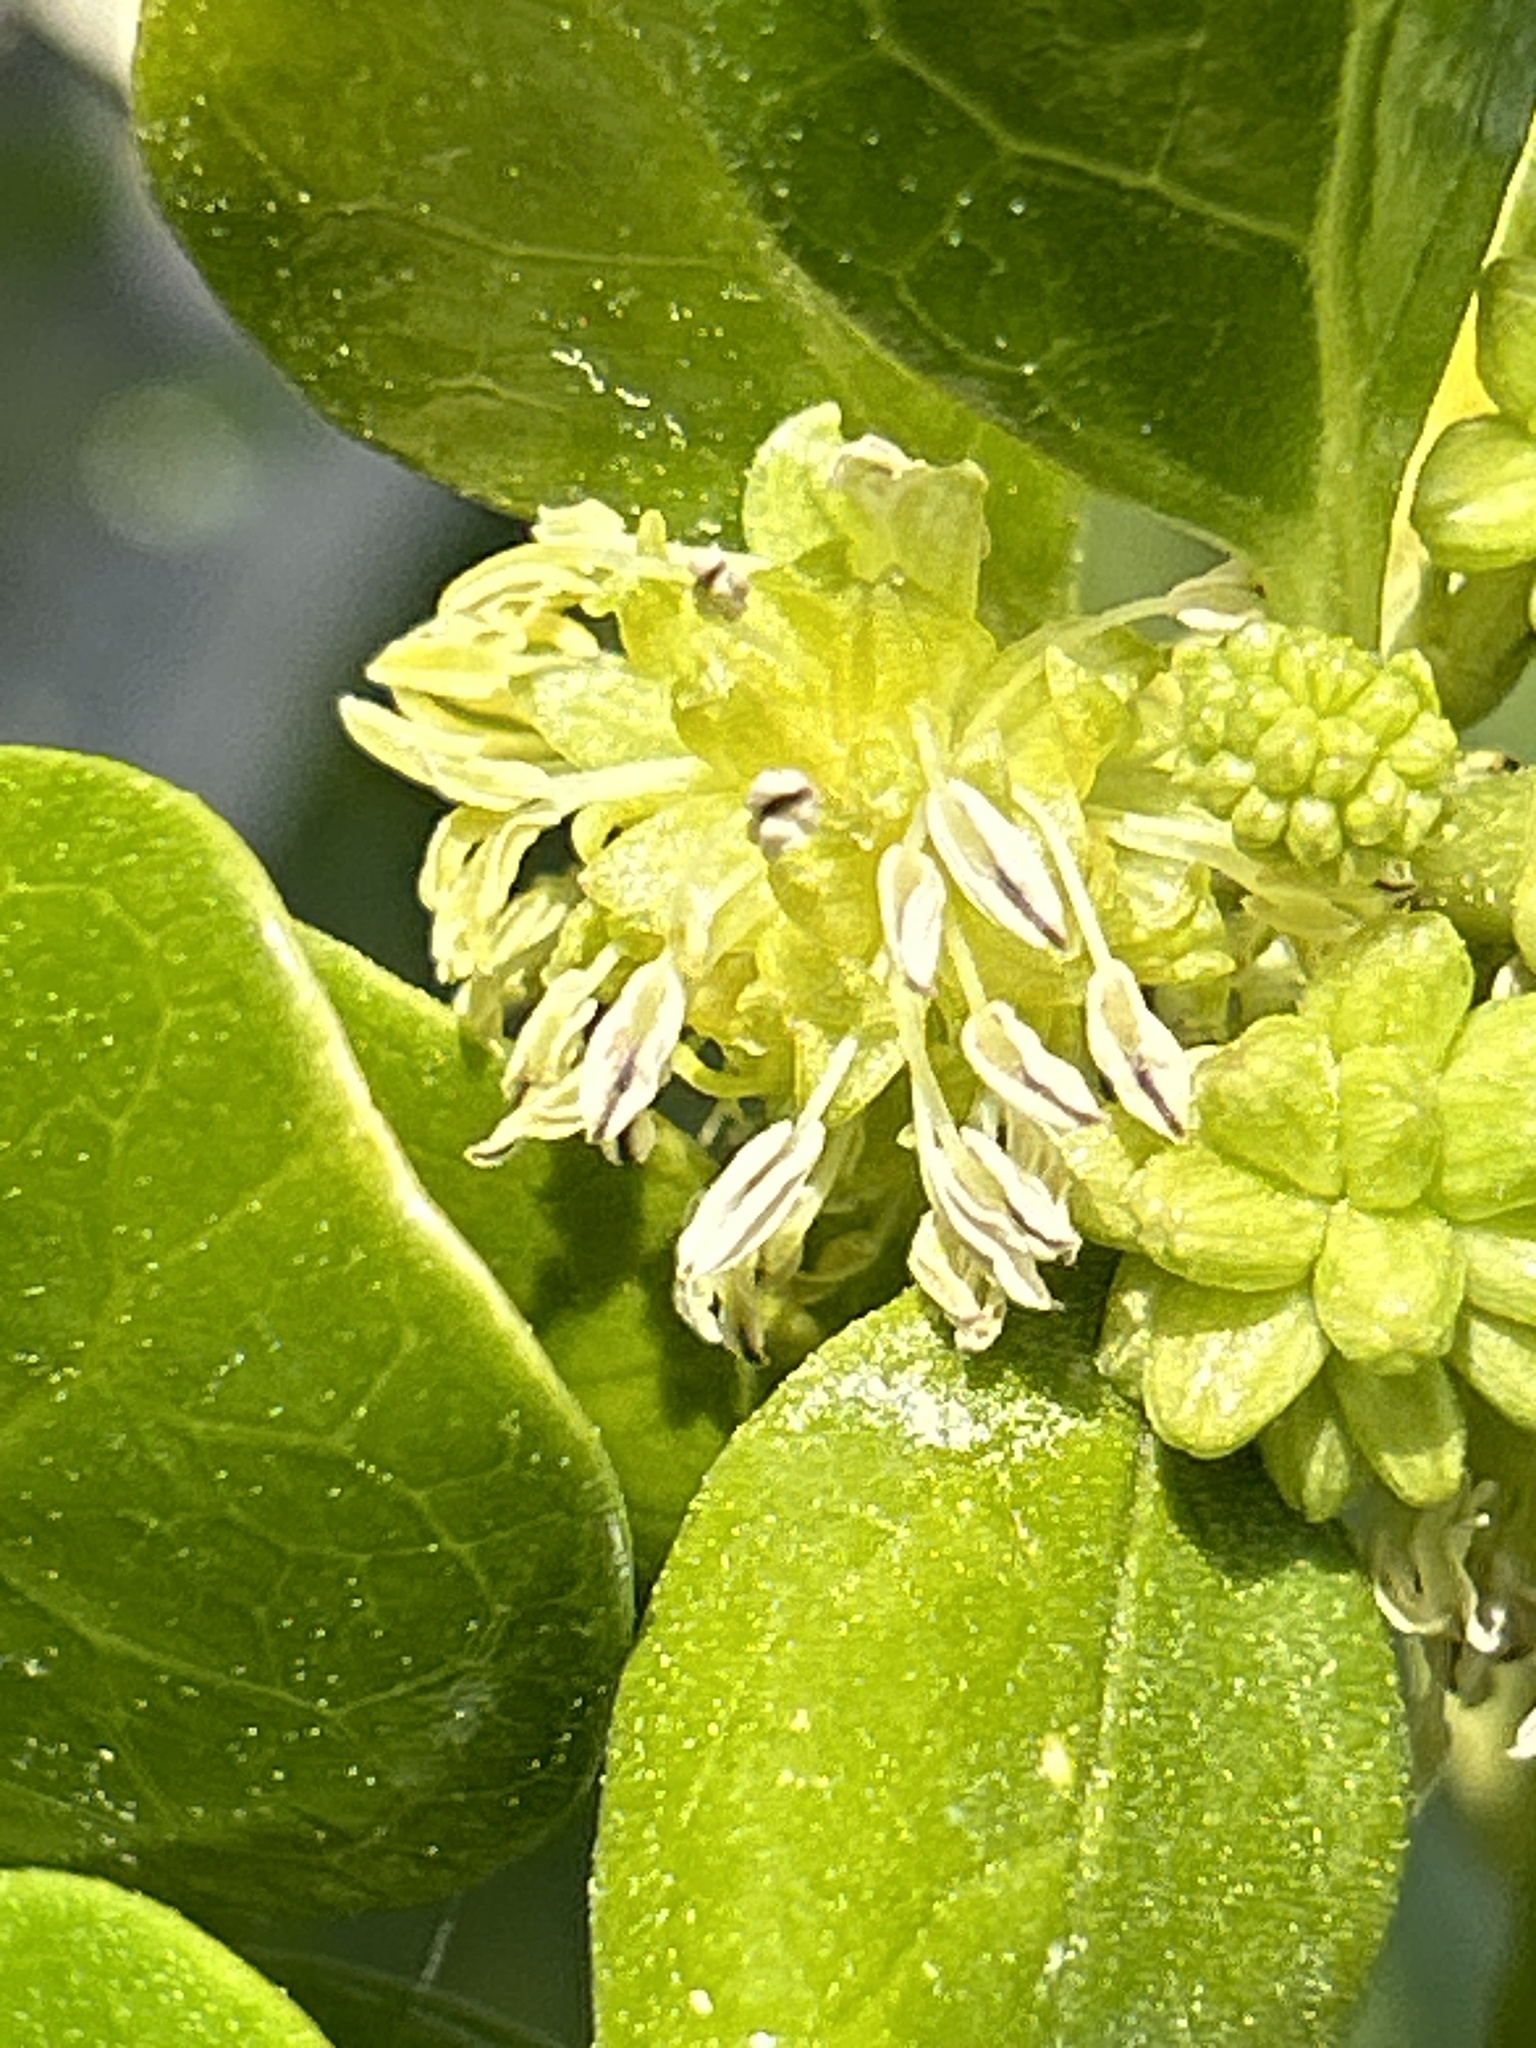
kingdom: Plantae
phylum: Tracheophyta
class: Magnoliopsida
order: Gentianales
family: Rubiaceae
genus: Coprosma
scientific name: Coprosma repens
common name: Tree bedstraw
